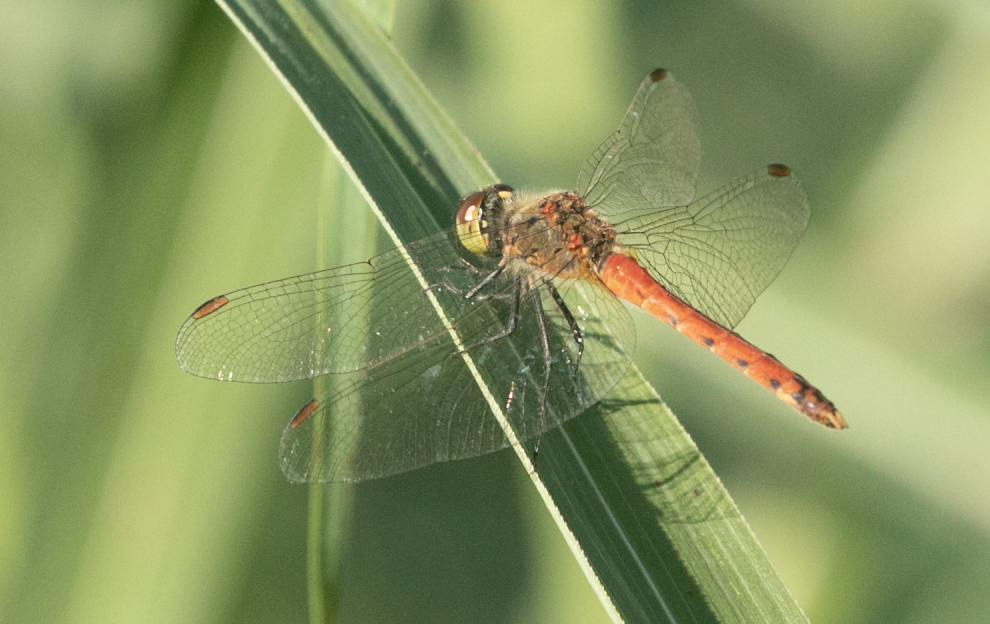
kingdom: Animalia
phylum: Arthropoda
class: Insecta
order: Odonata
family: Libellulidae
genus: Sympetrum
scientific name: Sympetrum depressiusculum
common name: Spotted darter
